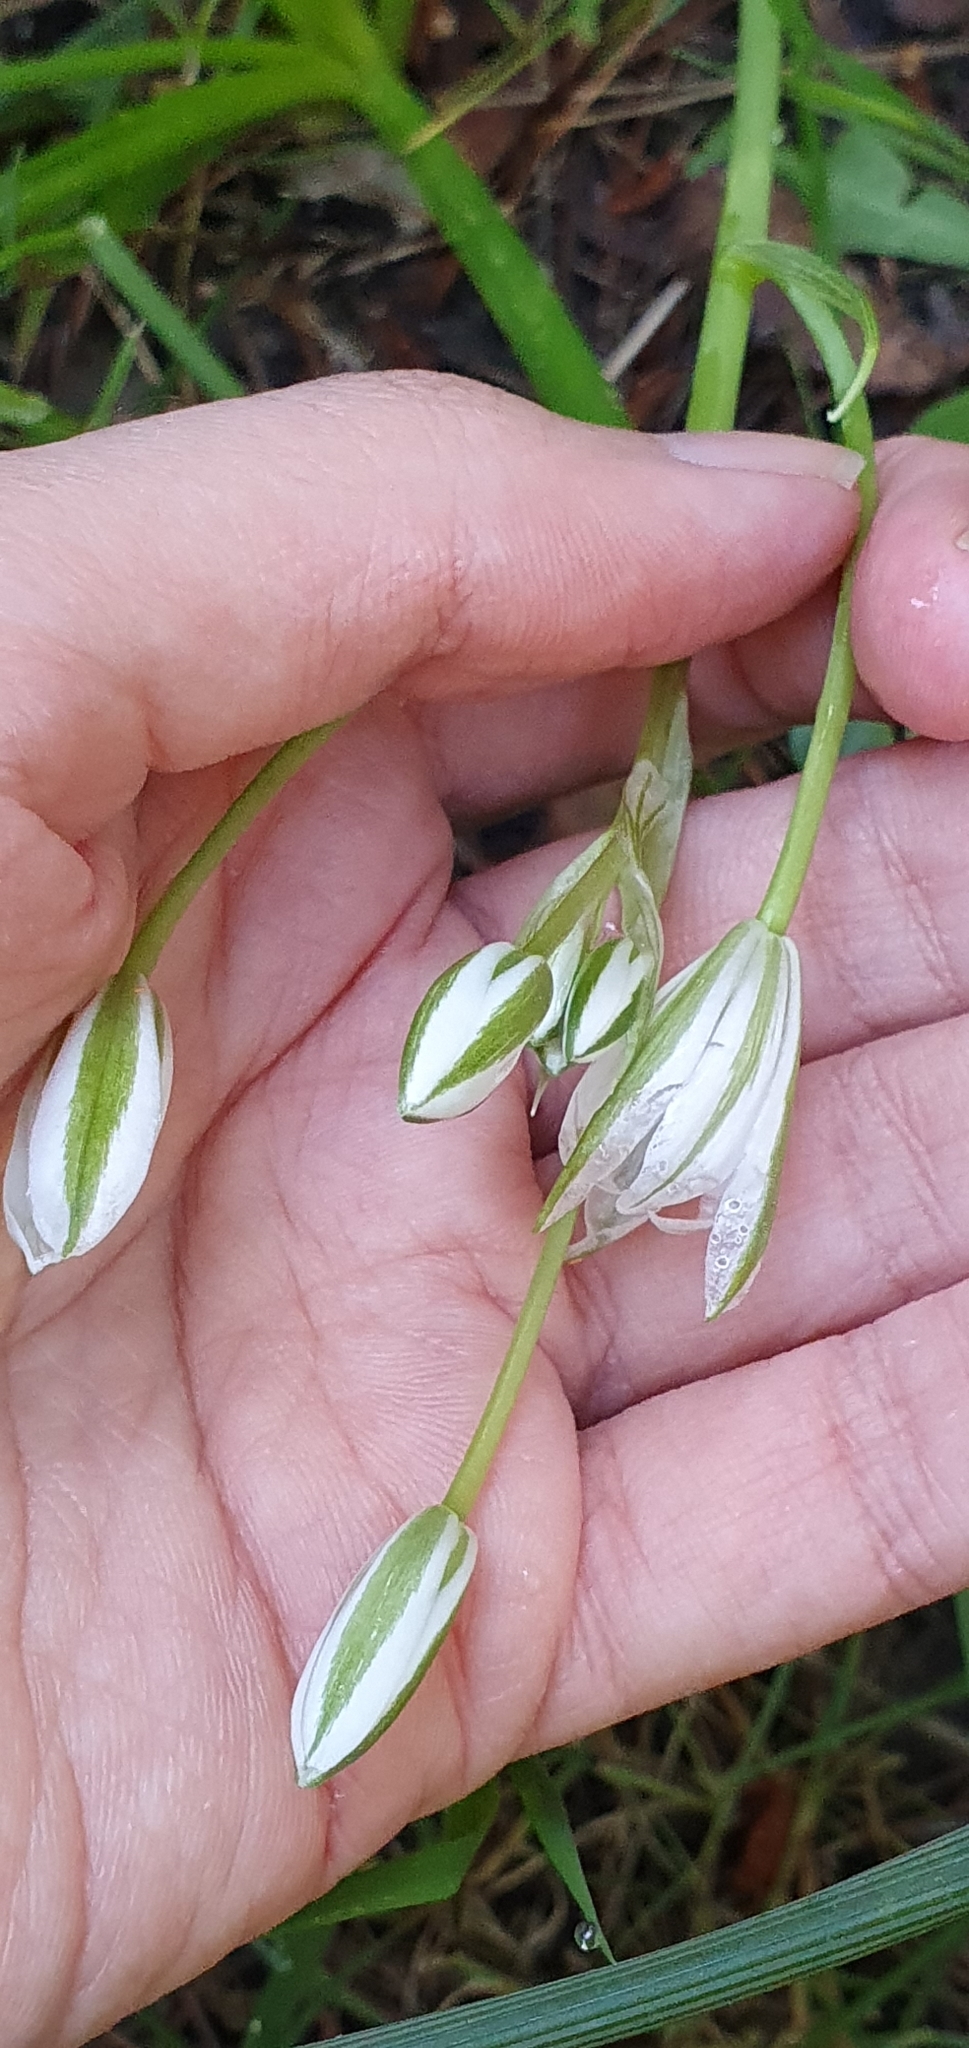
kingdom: Plantae
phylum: Tracheophyta
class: Liliopsida
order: Asparagales
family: Asparagaceae
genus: Ornithogalum
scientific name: Ornithogalum baeticum
